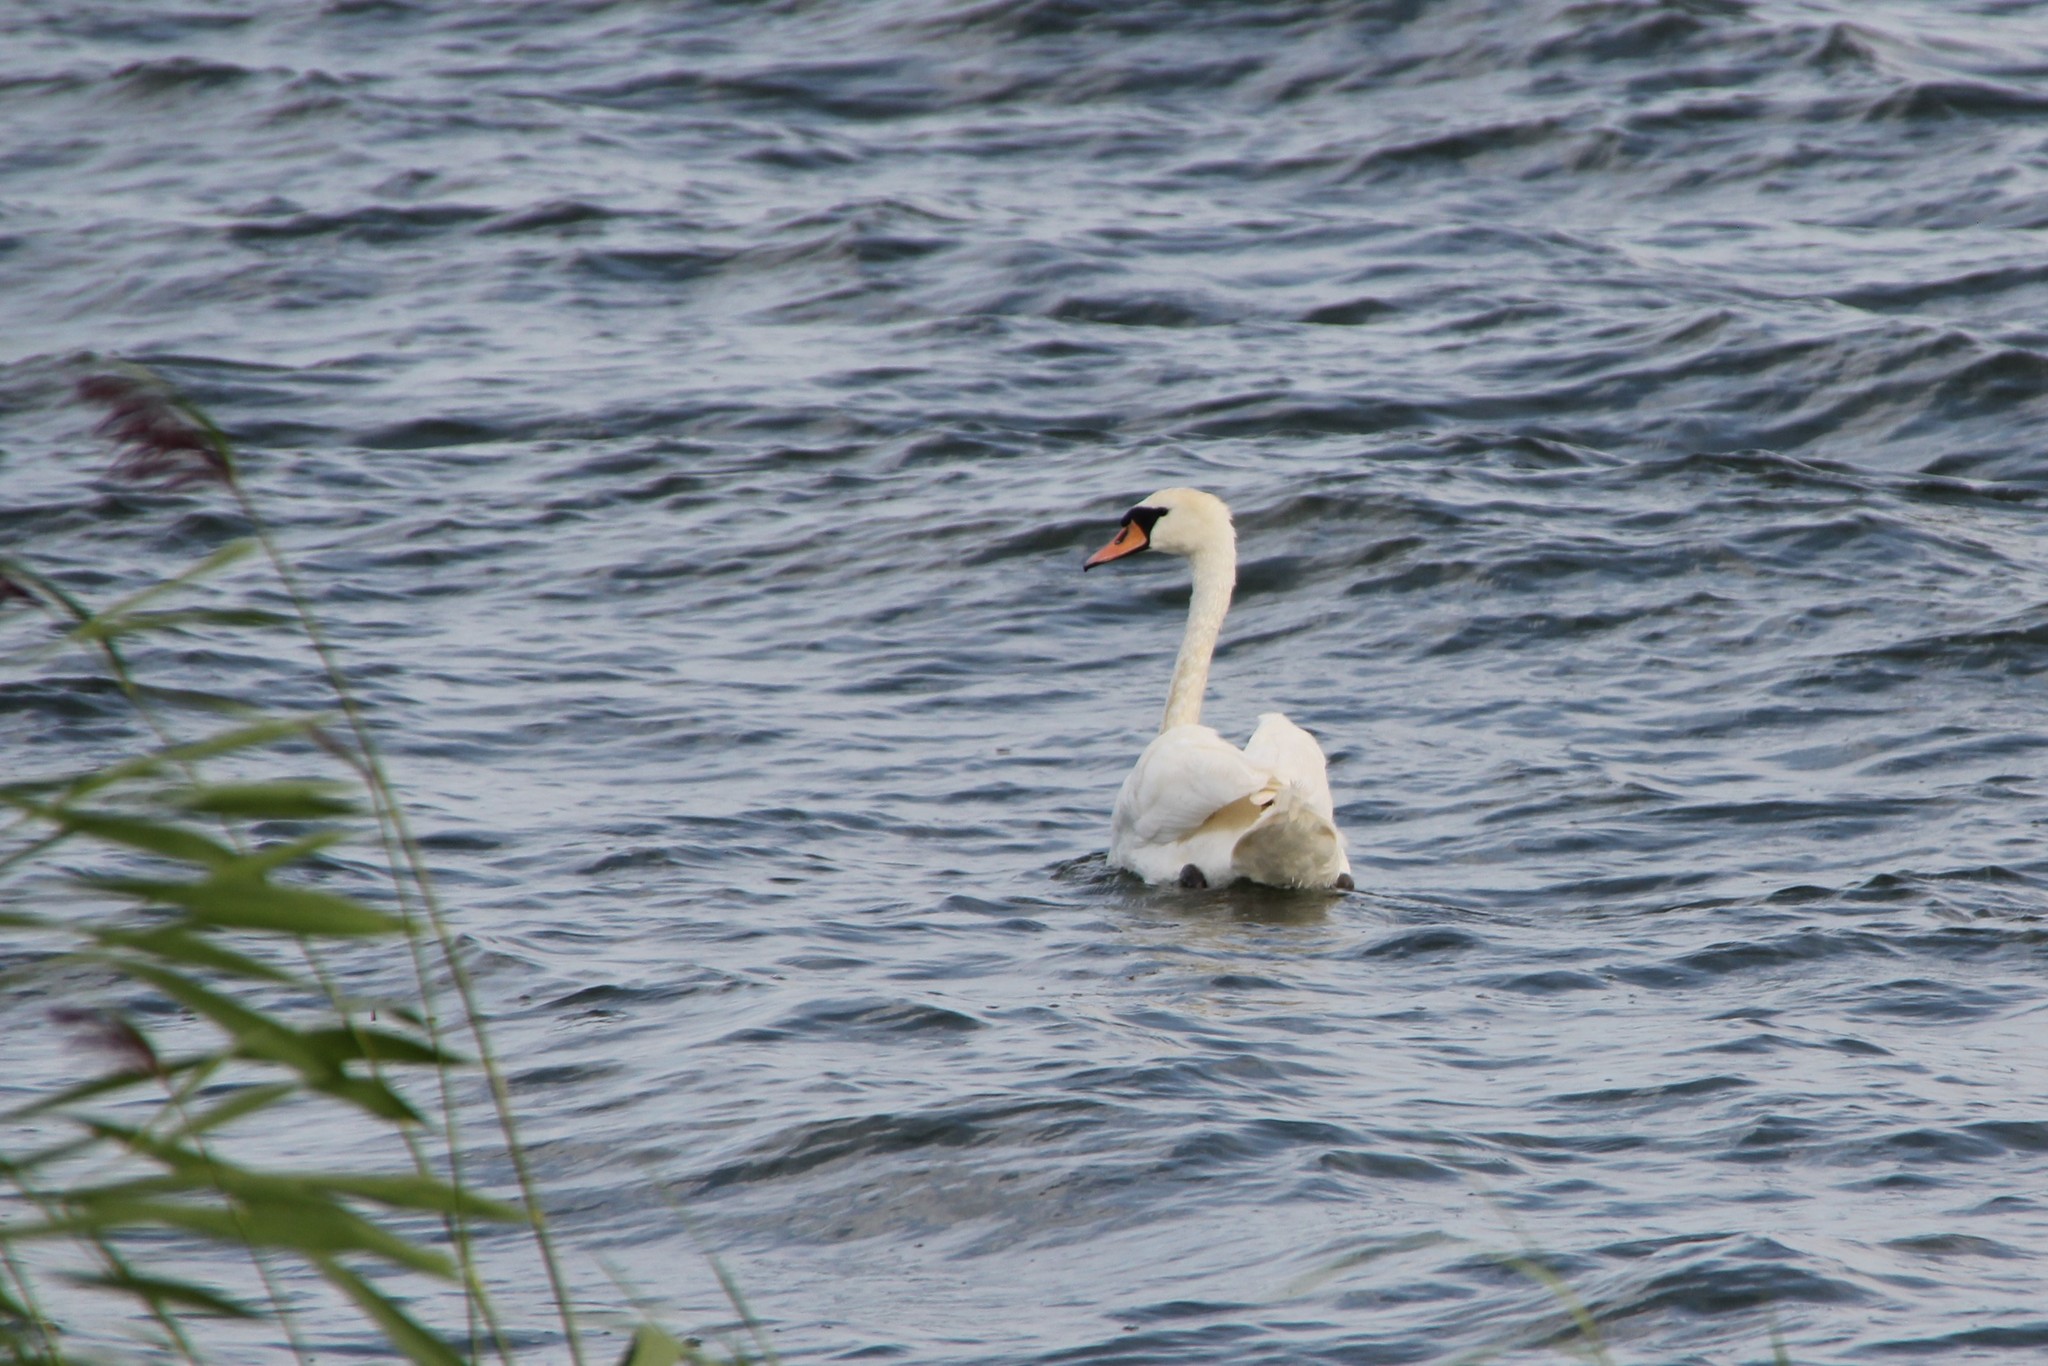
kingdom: Animalia
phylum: Chordata
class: Aves
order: Anseriformes
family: Anatidae
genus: Cygnus
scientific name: Cygnus olor
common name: Mute swan
